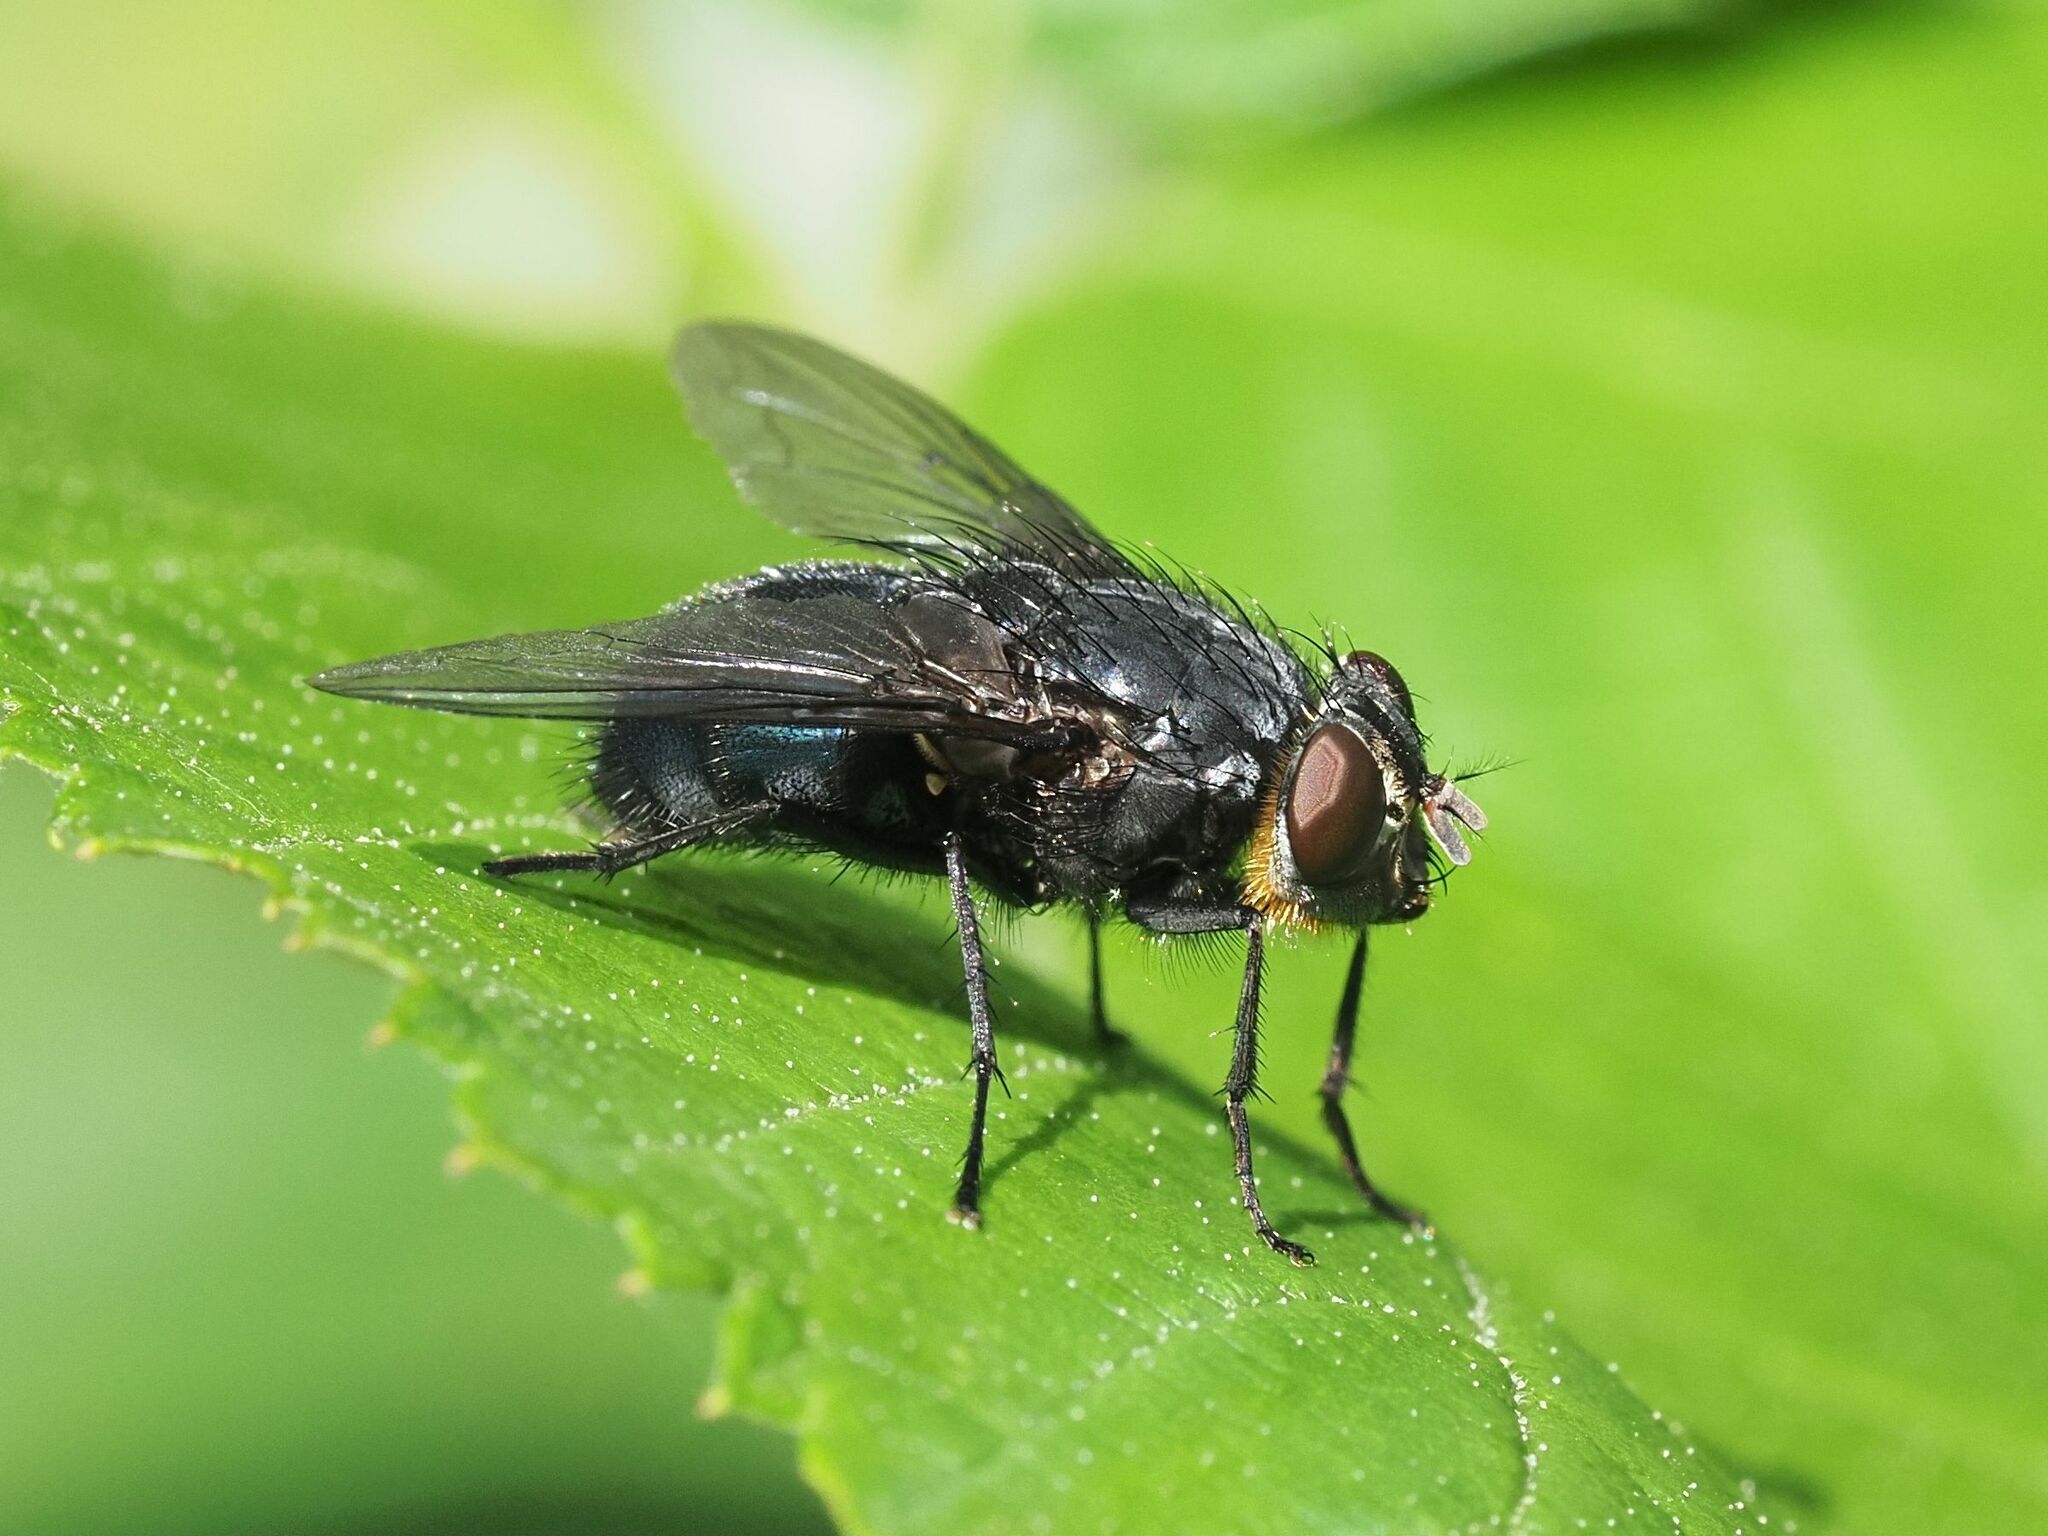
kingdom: Animalia
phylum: Arthropoda
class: Insecta
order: Diptera
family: Calliphoridae
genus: Calliphora
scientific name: Calliphora vomitoria
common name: Blue bottle fly
